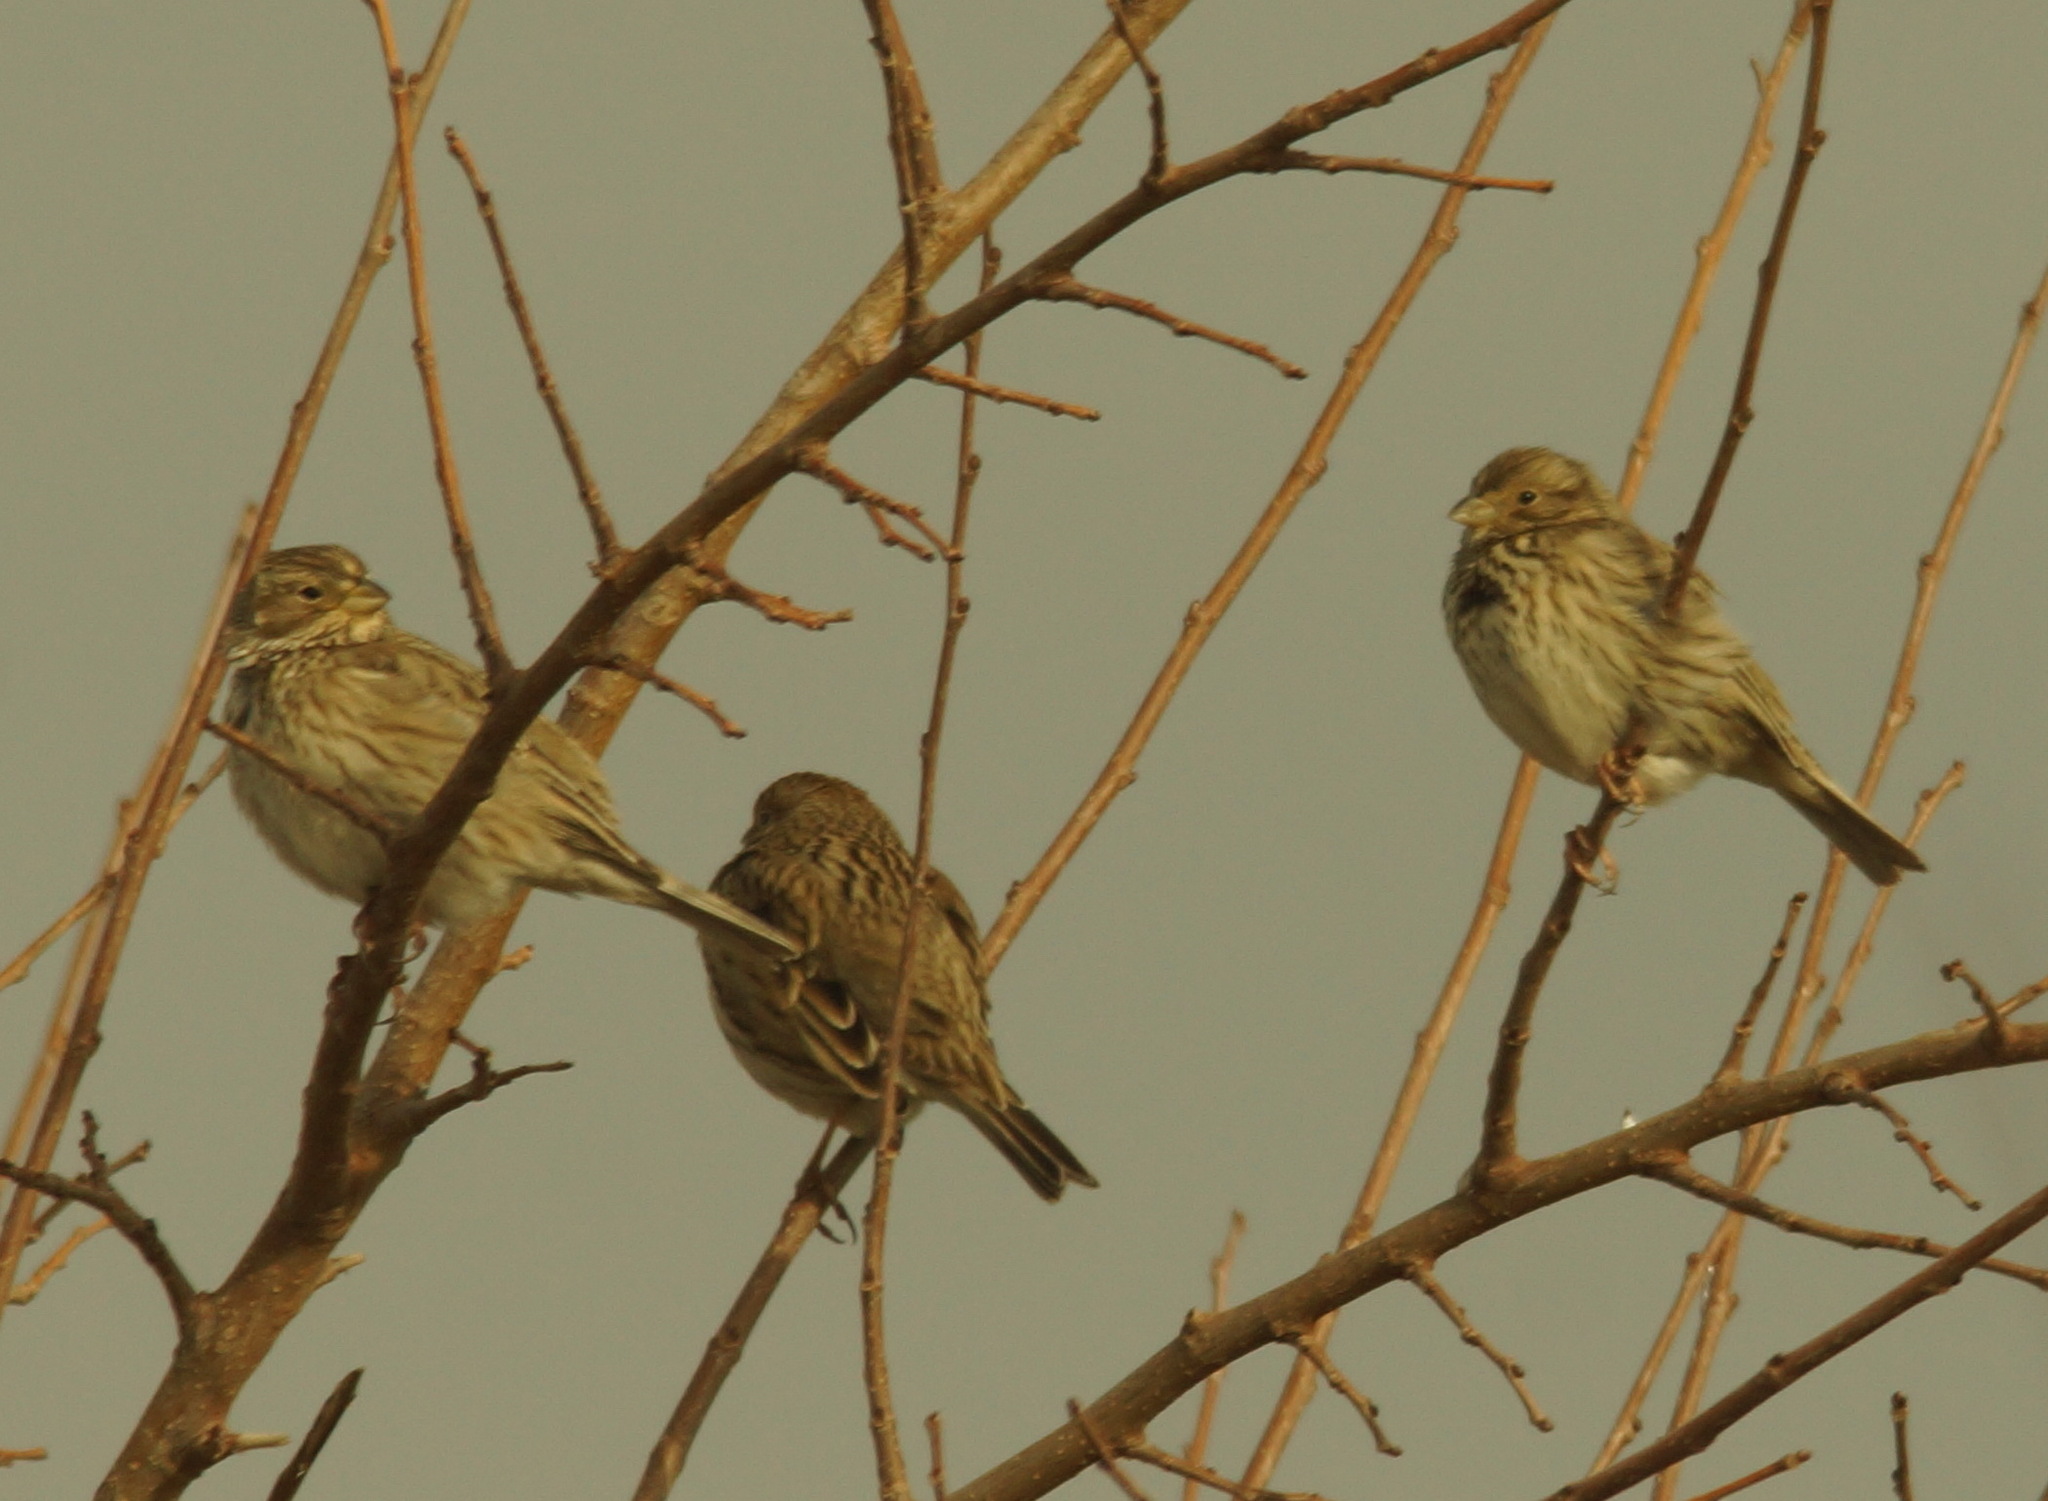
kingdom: Animalia
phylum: Chordata
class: Aves
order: Passeriformes
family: Emberizidae
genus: Emberiza
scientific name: Emberiza calandra
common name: Corn bunting
